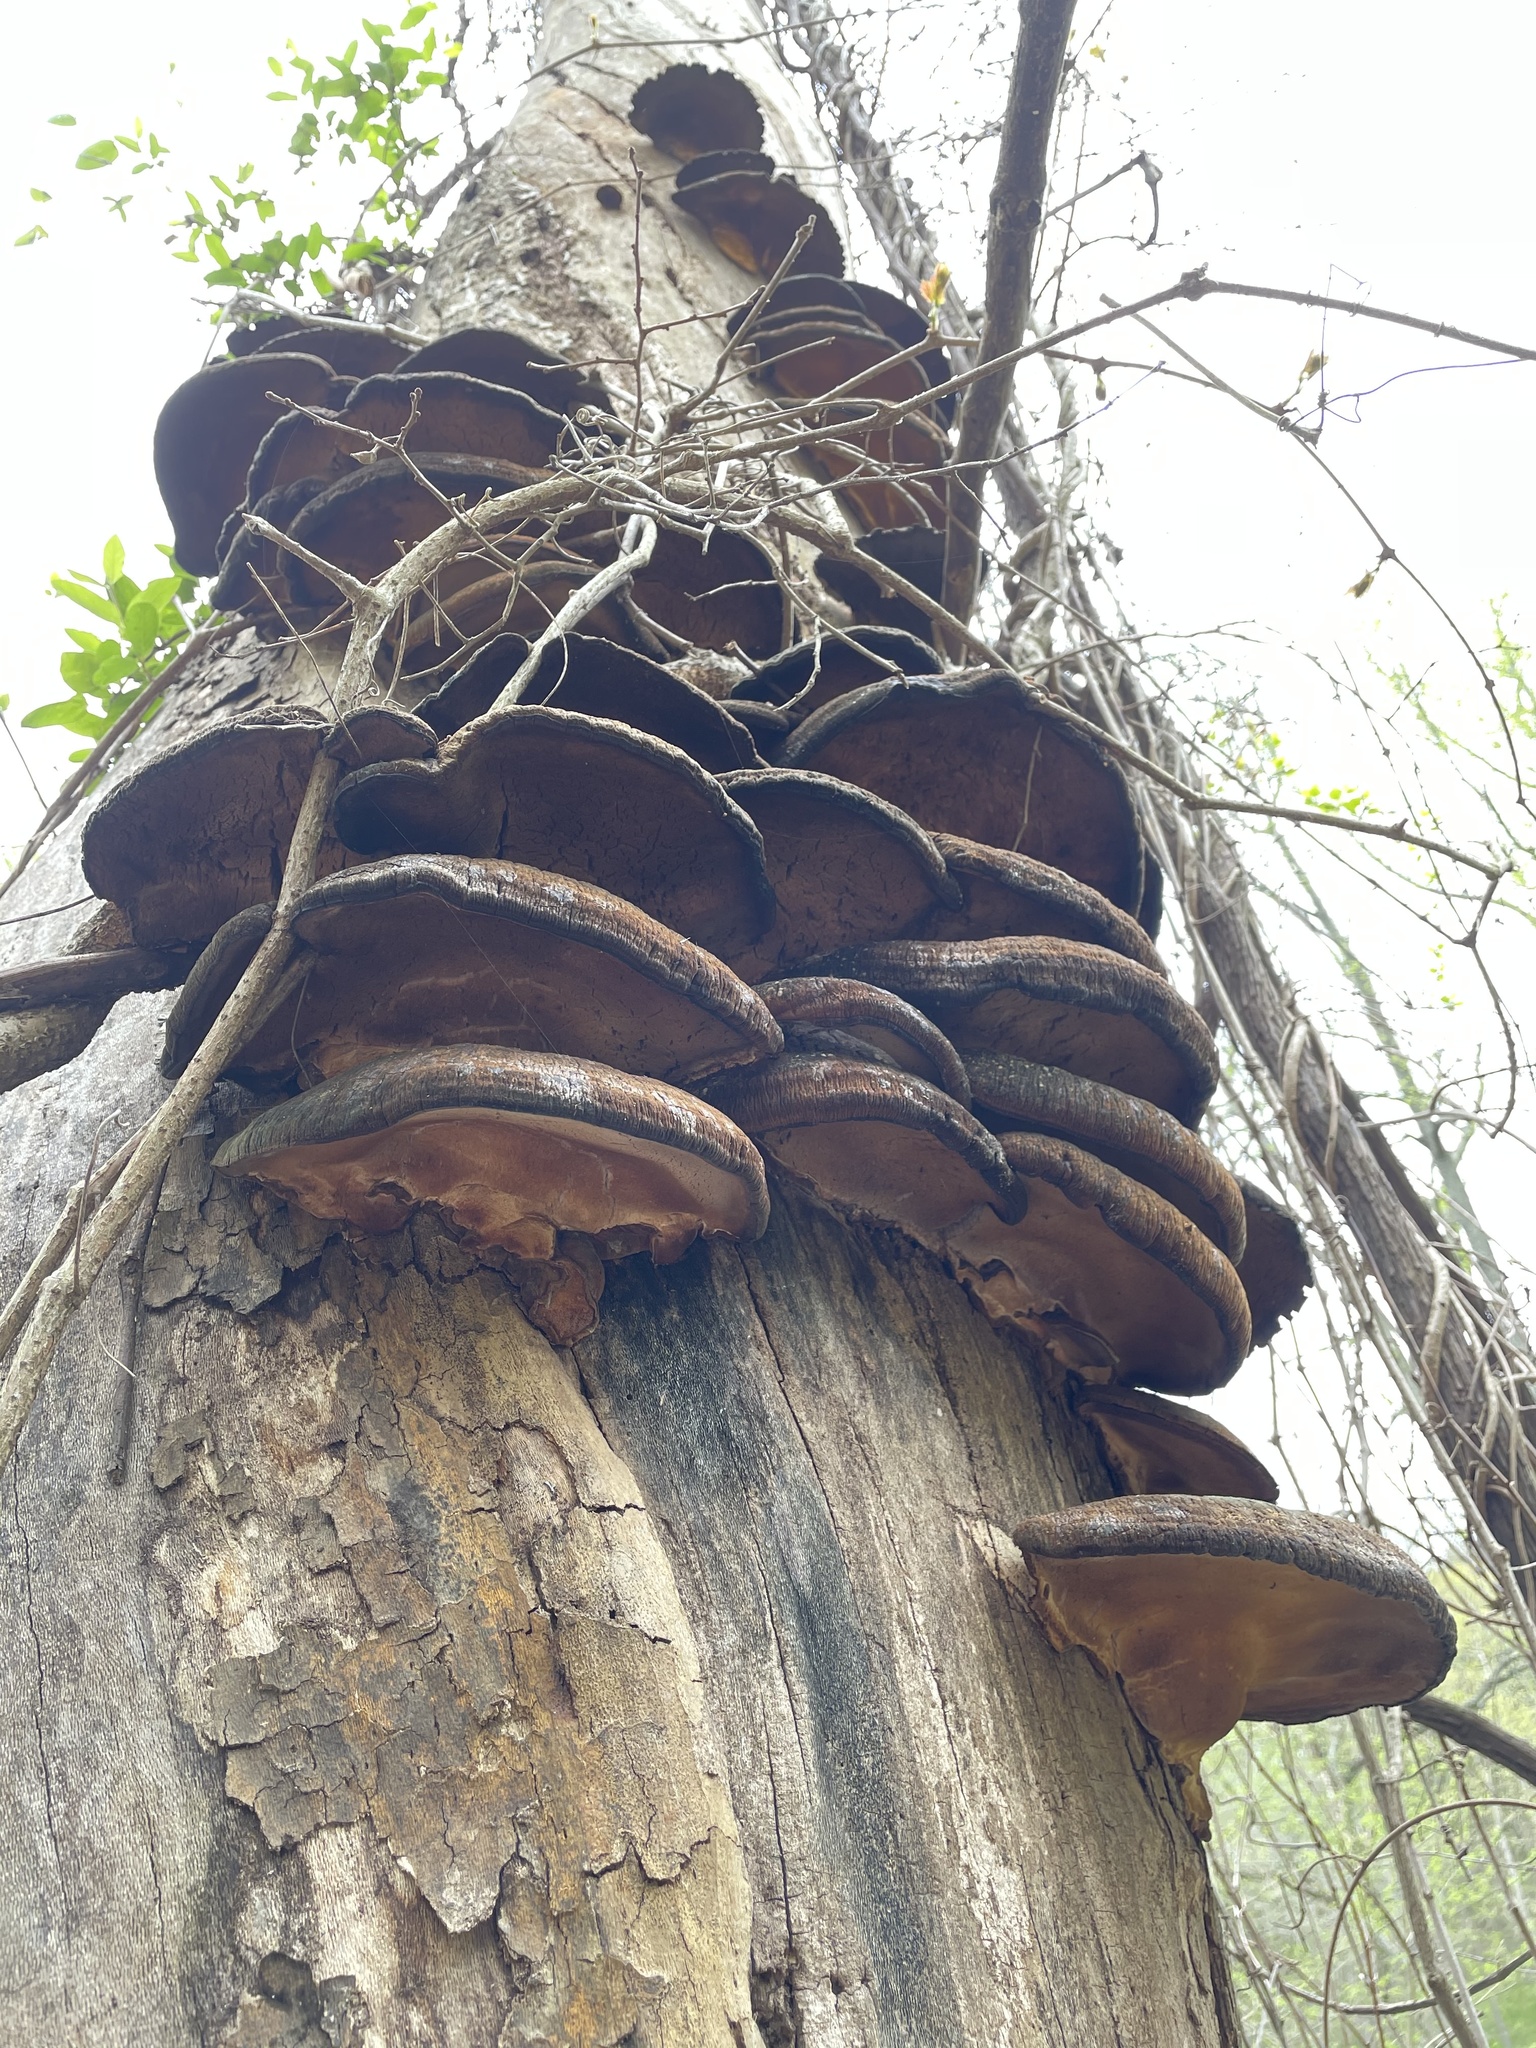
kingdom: Fungi
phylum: Basidiomycota
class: Agaricomycetes
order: Polyporales
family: Ischnodermataceae
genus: Ischnoderma
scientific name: Ischnoderma resinosum
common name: Resinous polypore
